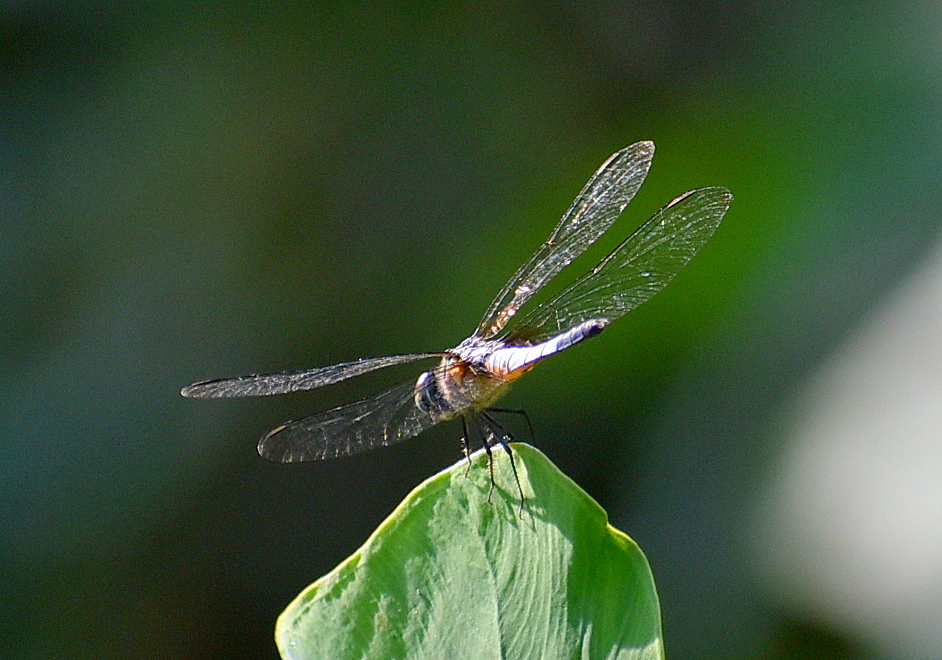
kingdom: Animalia
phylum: Arthropoda
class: Insecta
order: Odonata
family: Libellulidae
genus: Brachydiplax
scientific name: Brachydiplax chalybea
